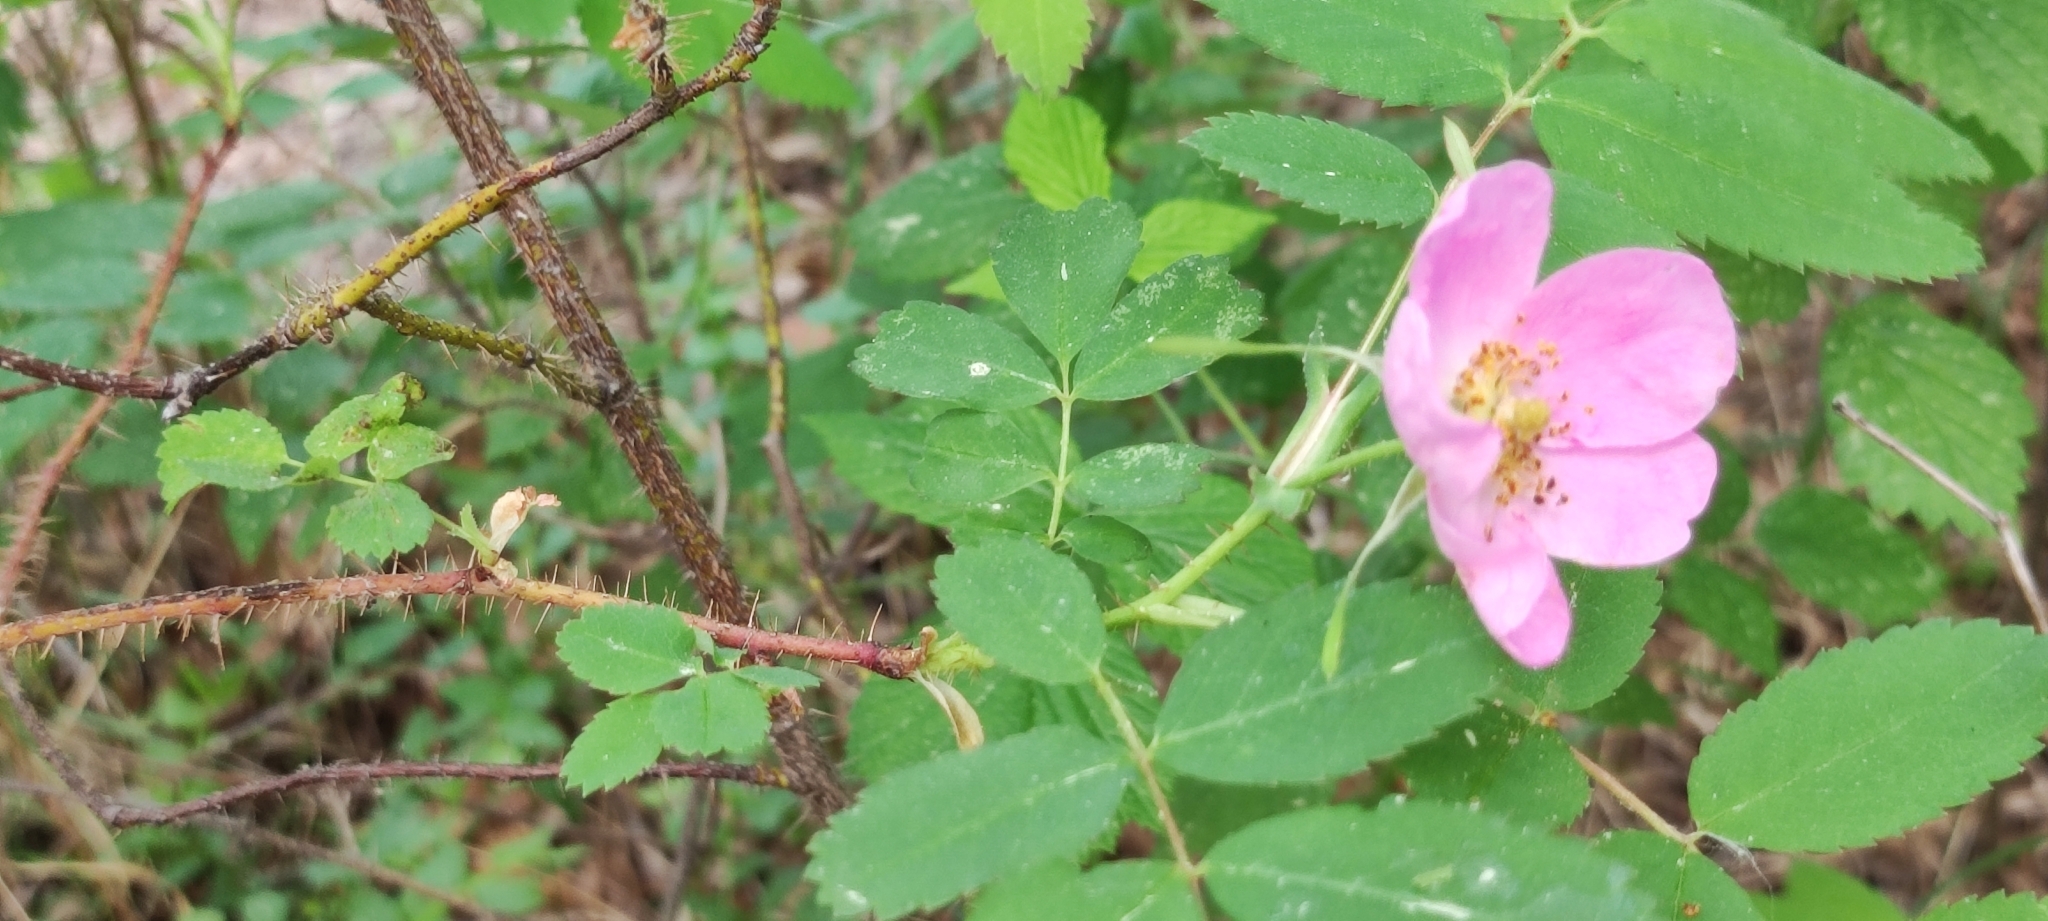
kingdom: Plantae
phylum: Tracheophyta
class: Magnoliopsida
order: Rosales
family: Rosaceae
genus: Rosa
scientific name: Rosa acicularis
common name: Prickly rose
